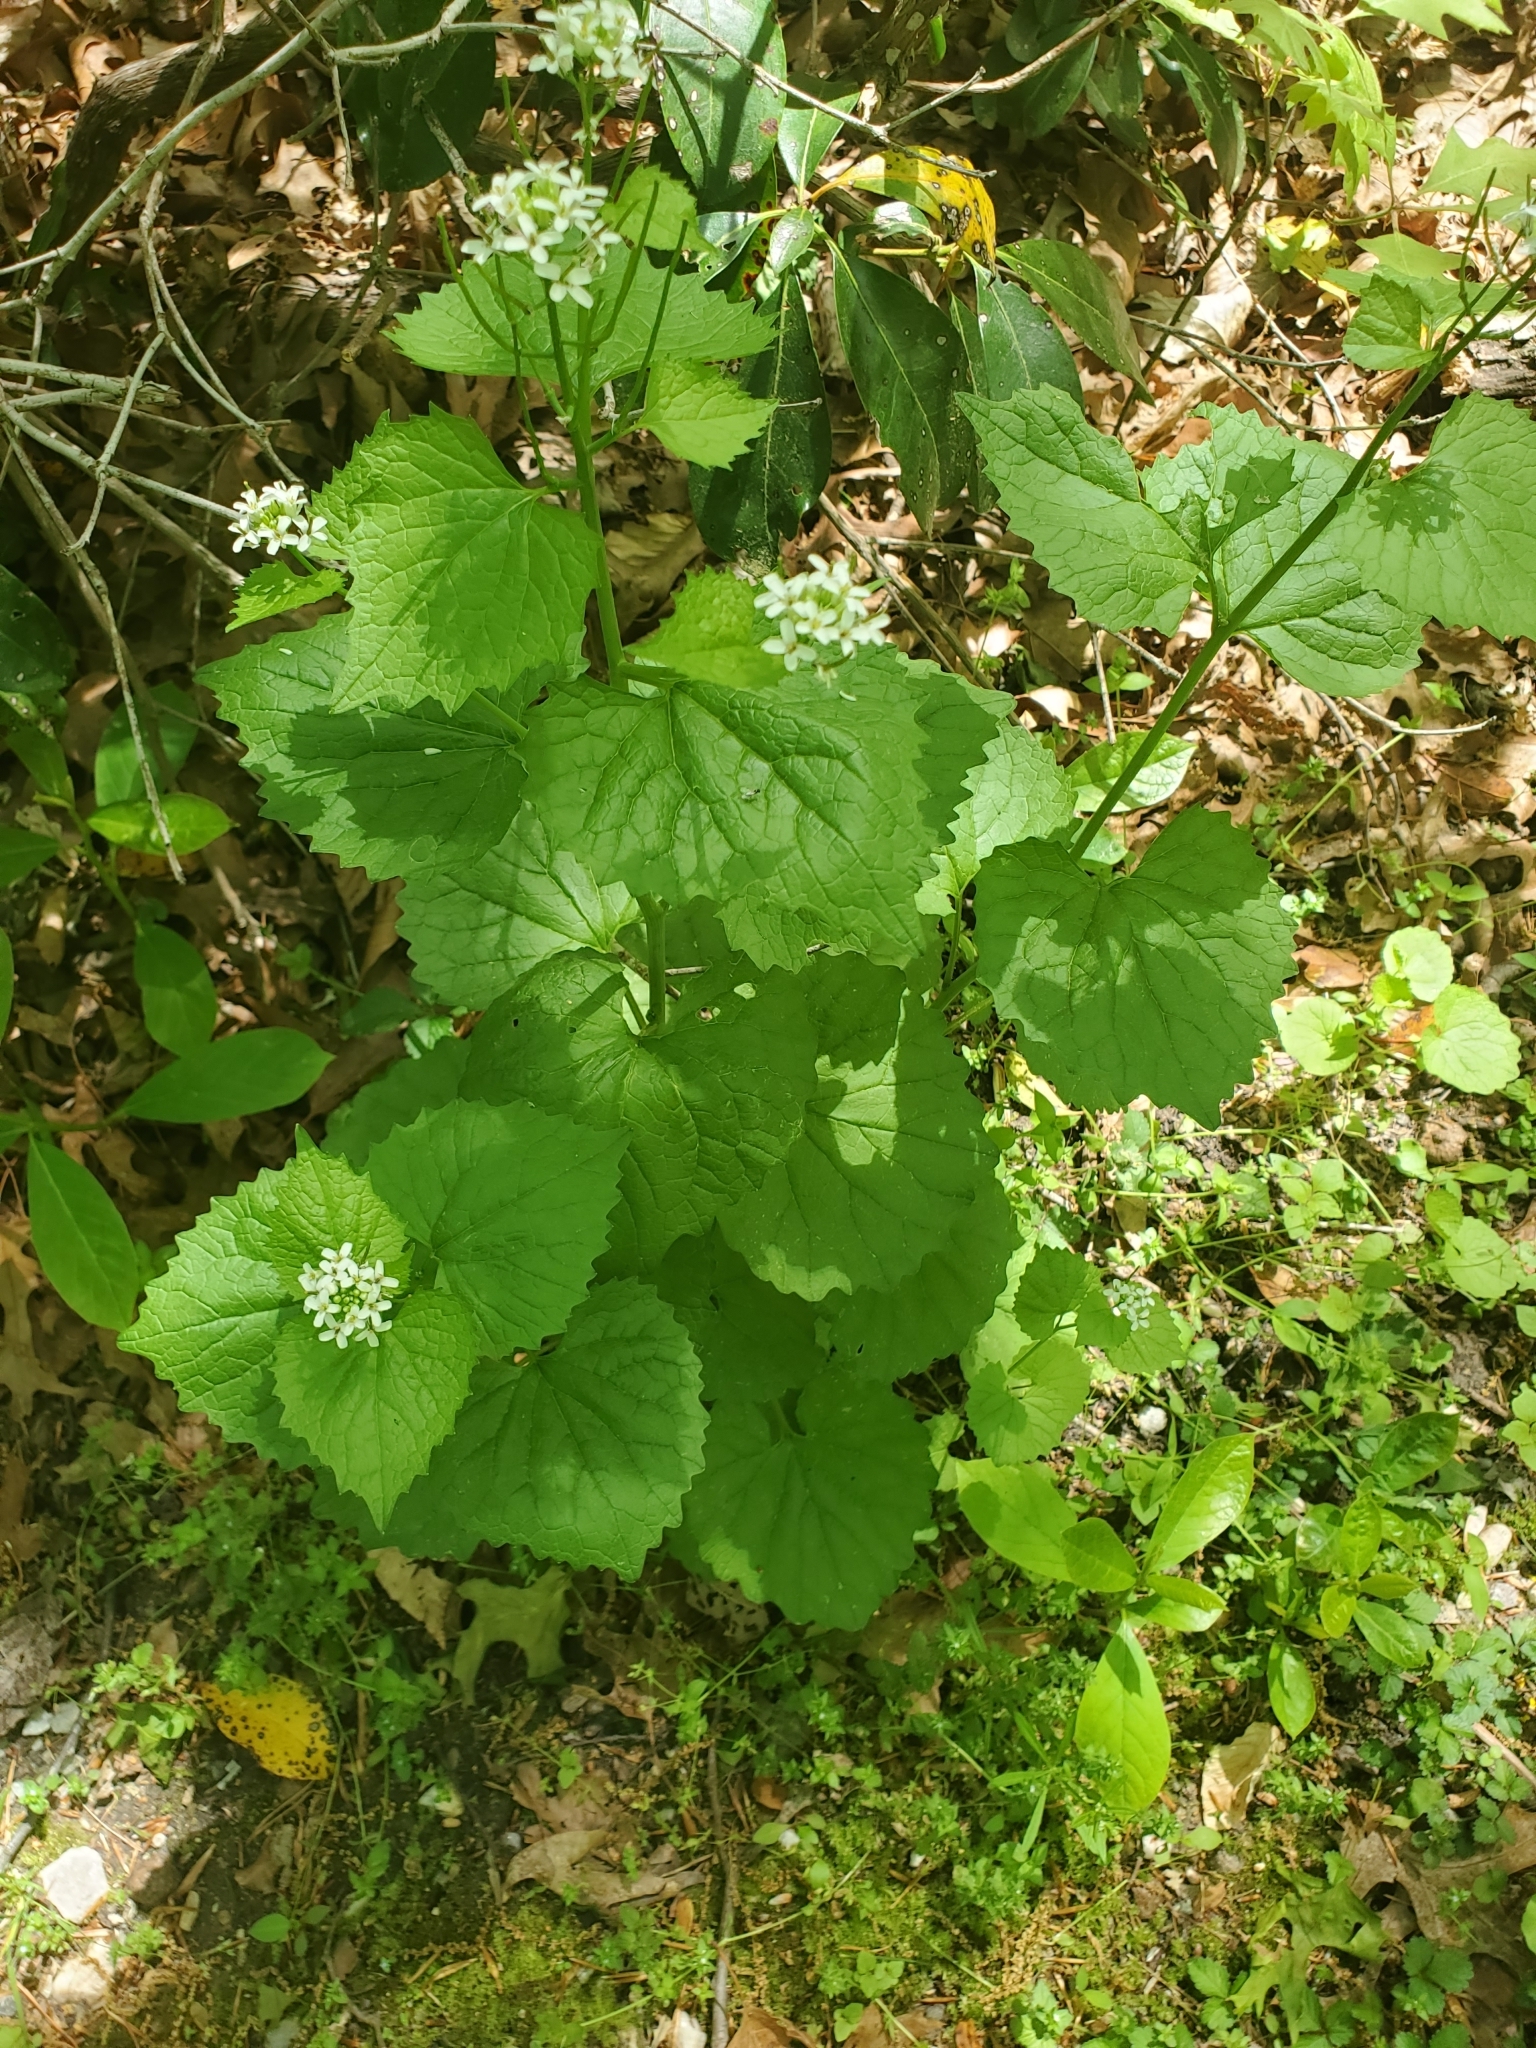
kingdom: Plantae
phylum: Tracheophyta
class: Magnoliopsida
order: Brassicales
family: Brassicaceae
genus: Alliaria
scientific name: Alliaria petiolata
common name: Garlic mustard
